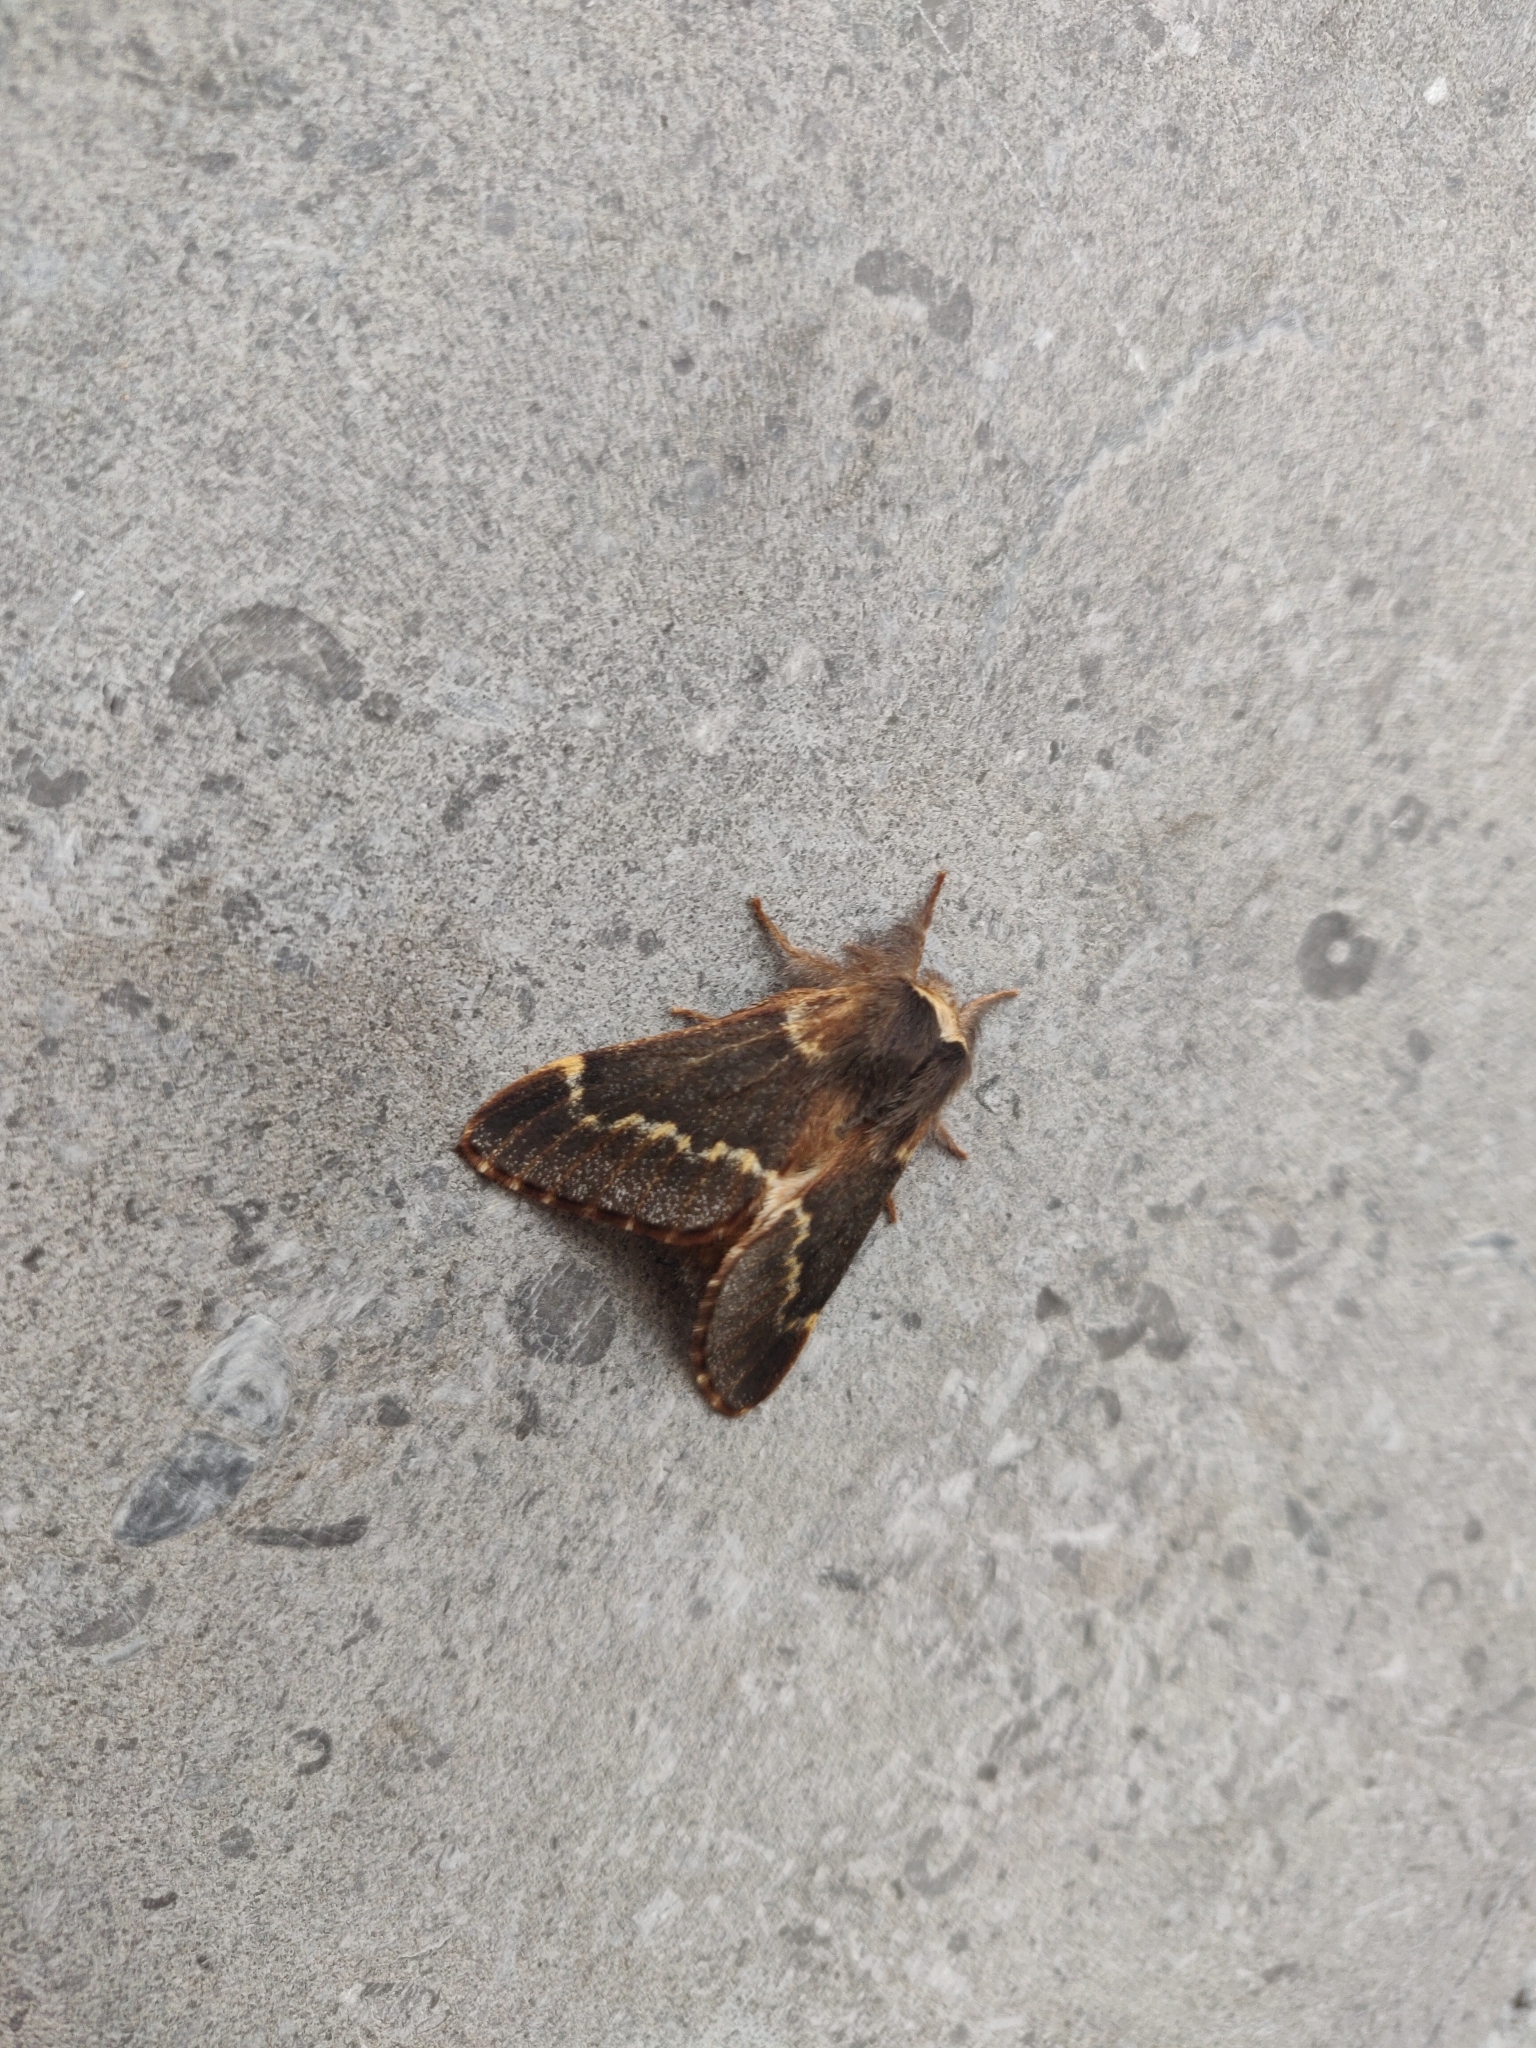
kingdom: Animalia
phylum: Arthropoda
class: Insecta
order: Lepidoptera
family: Lasiocampidae
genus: Poecilocampa
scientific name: Poecilocampa populi
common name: December moth
